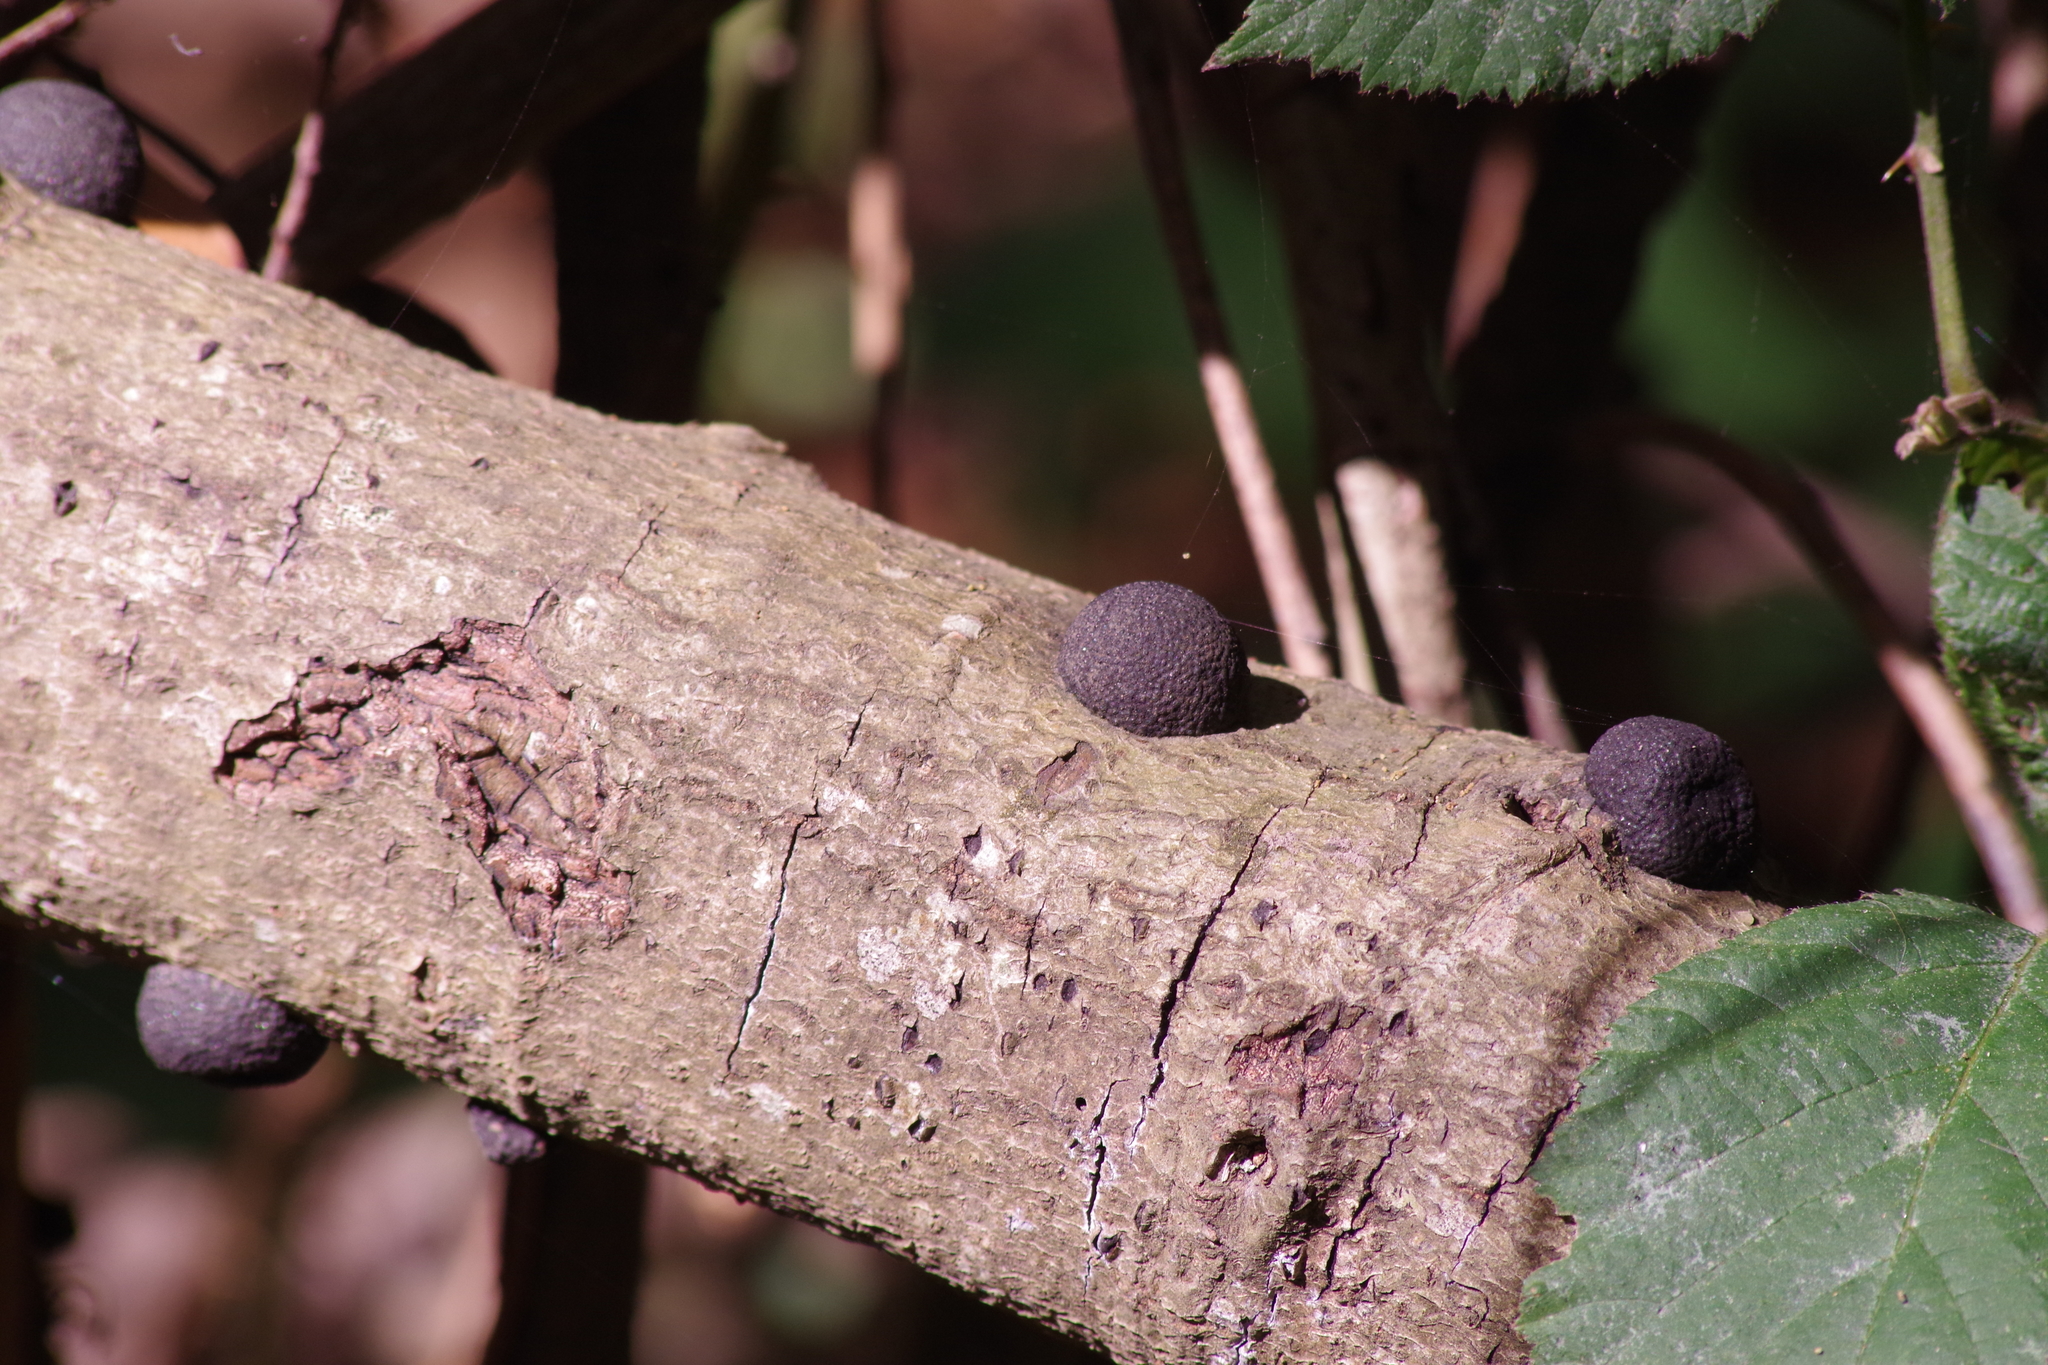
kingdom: Fungi
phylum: Ascomycota
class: Sordariomycetes
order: Xylariales
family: Hypoxylaceae
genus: Annulohypoxylon
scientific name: Annulohypoxylon thouarsianum
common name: Cramp balls
